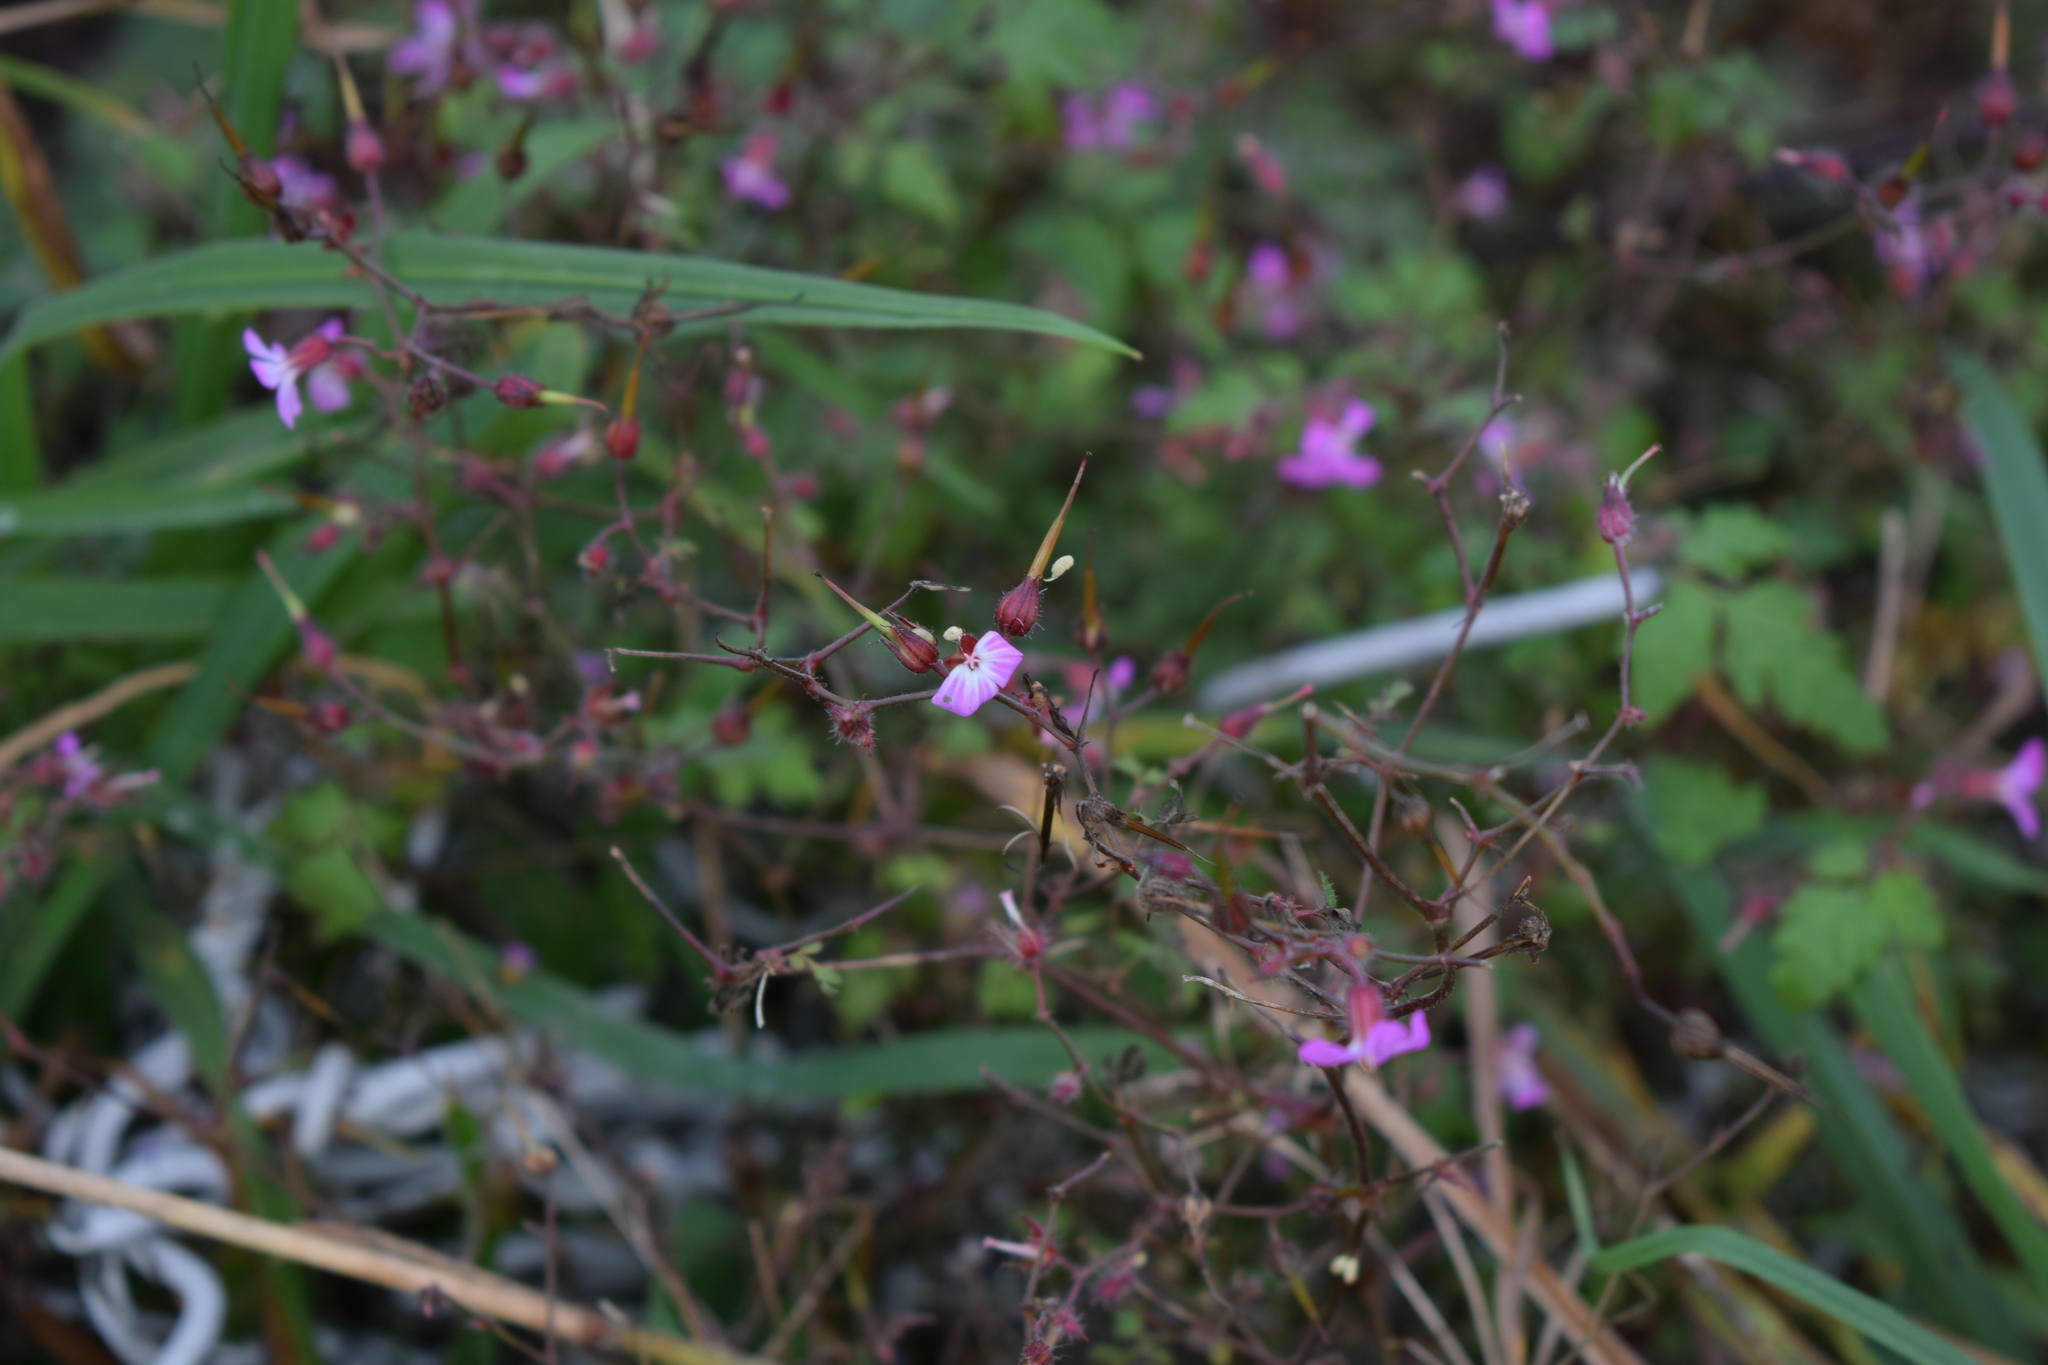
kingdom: Plantae
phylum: Tracheophyta
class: Magnoliopsida
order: Geraniales
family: Geraniaceae
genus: Geranium
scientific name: Geranium robertianum
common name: Herb-robert
